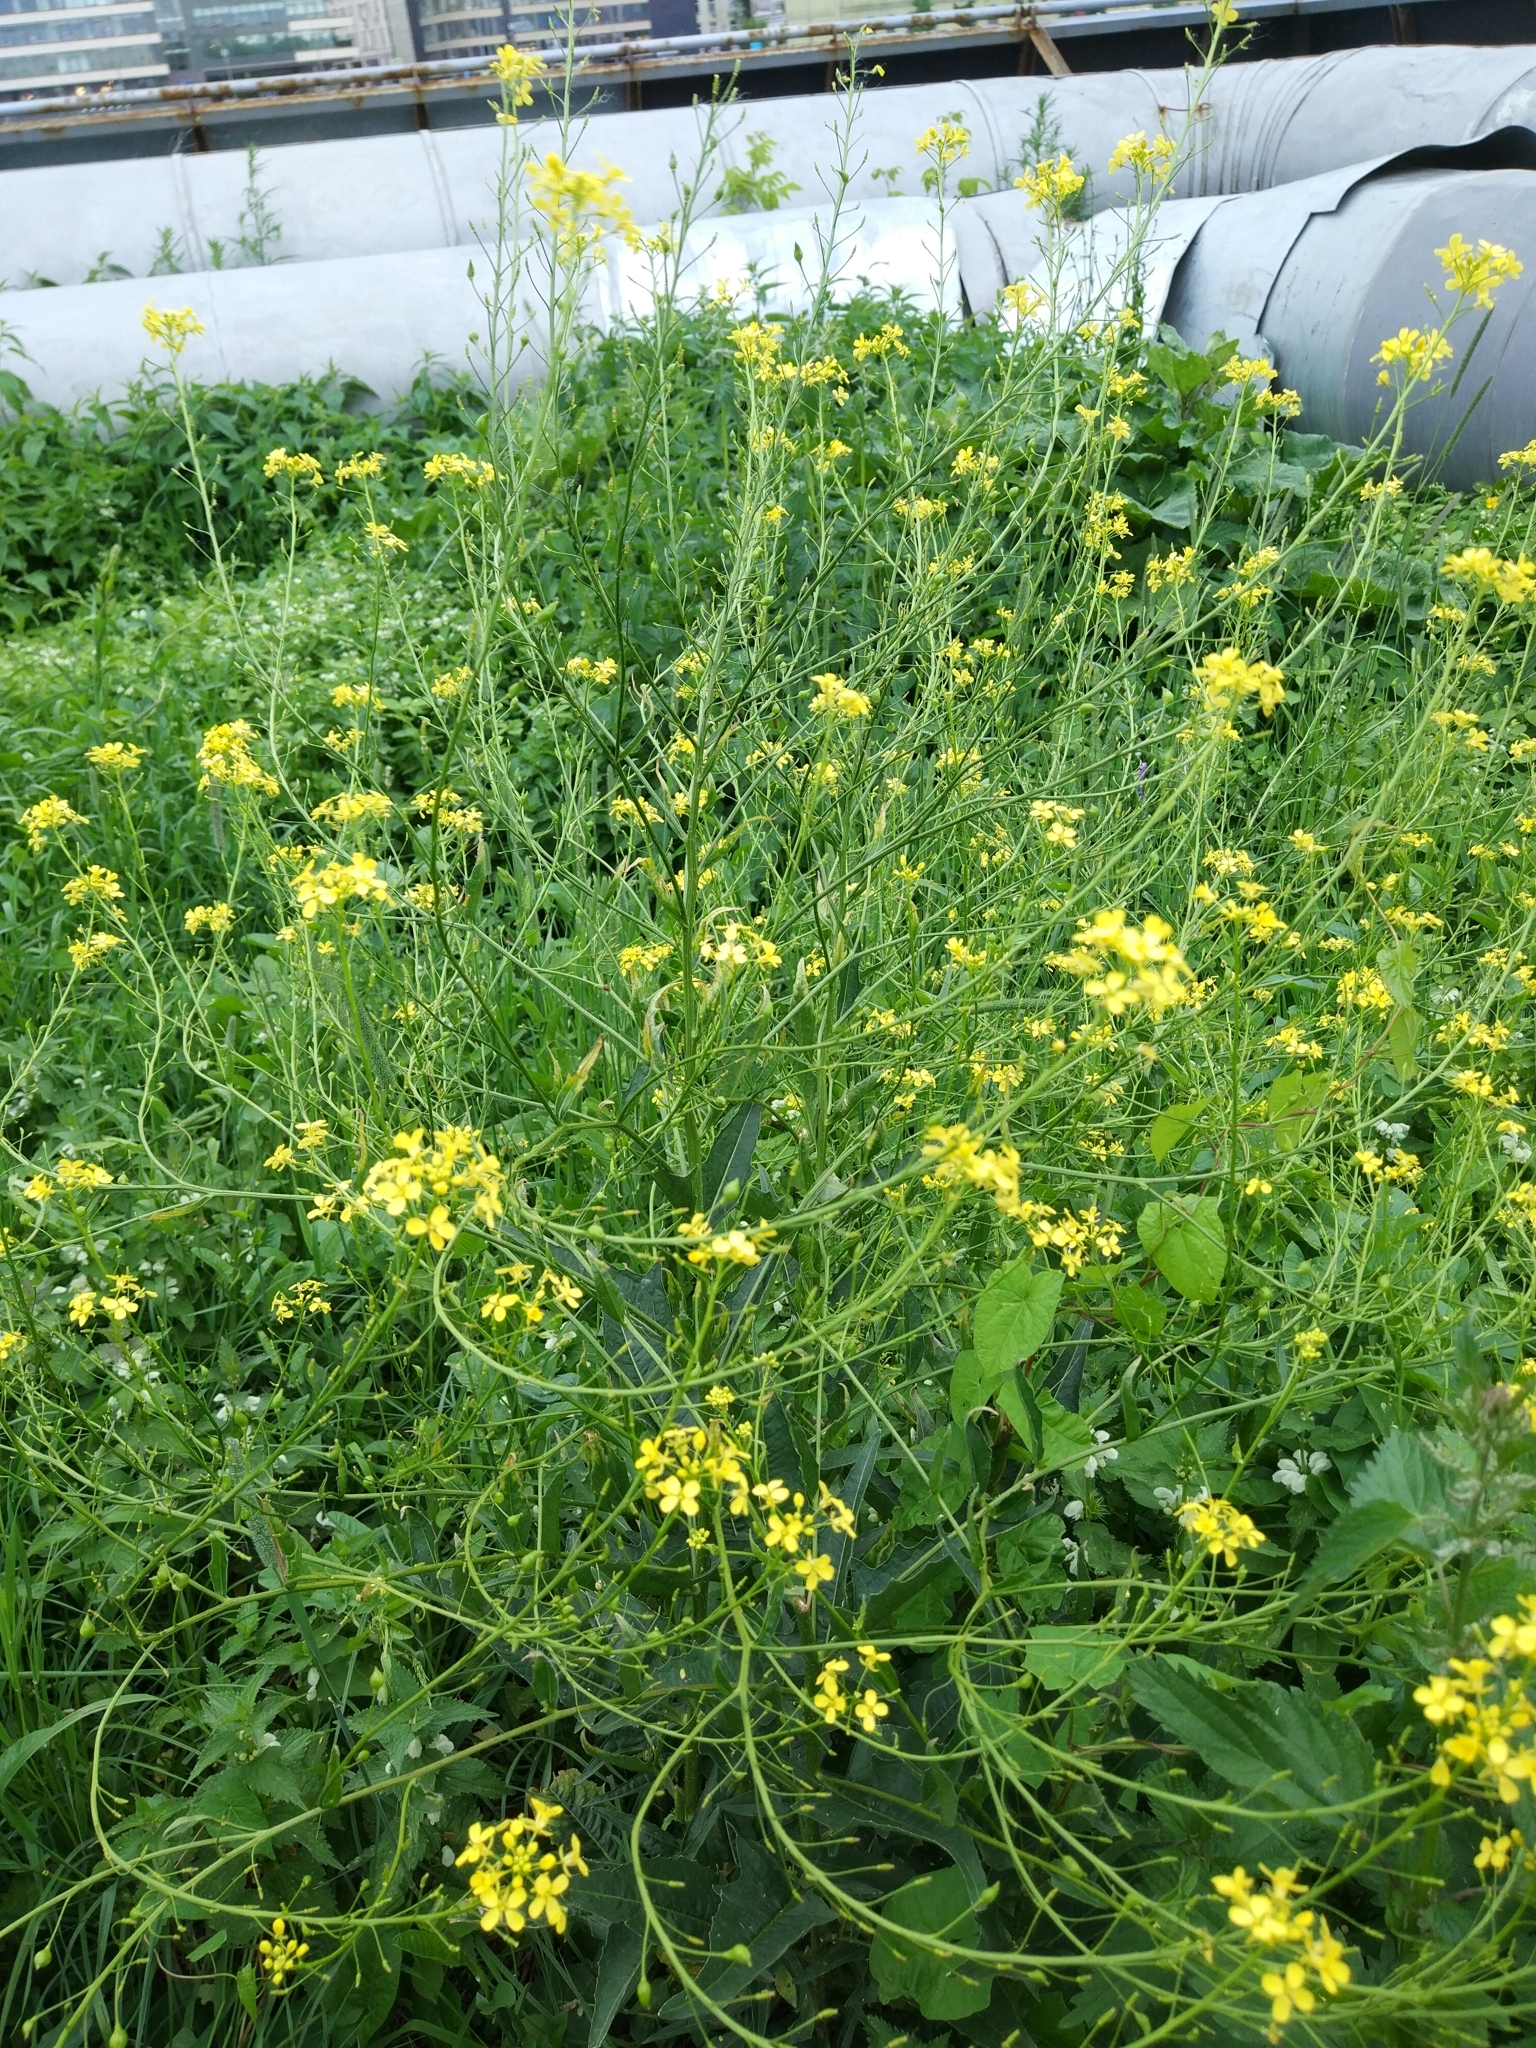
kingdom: Plantae
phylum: Tracheophyta
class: Magnoliopsida
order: Brassicales
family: Brassicaceae
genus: Bunias
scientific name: Bunias orientalis
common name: Warty-cabbage
